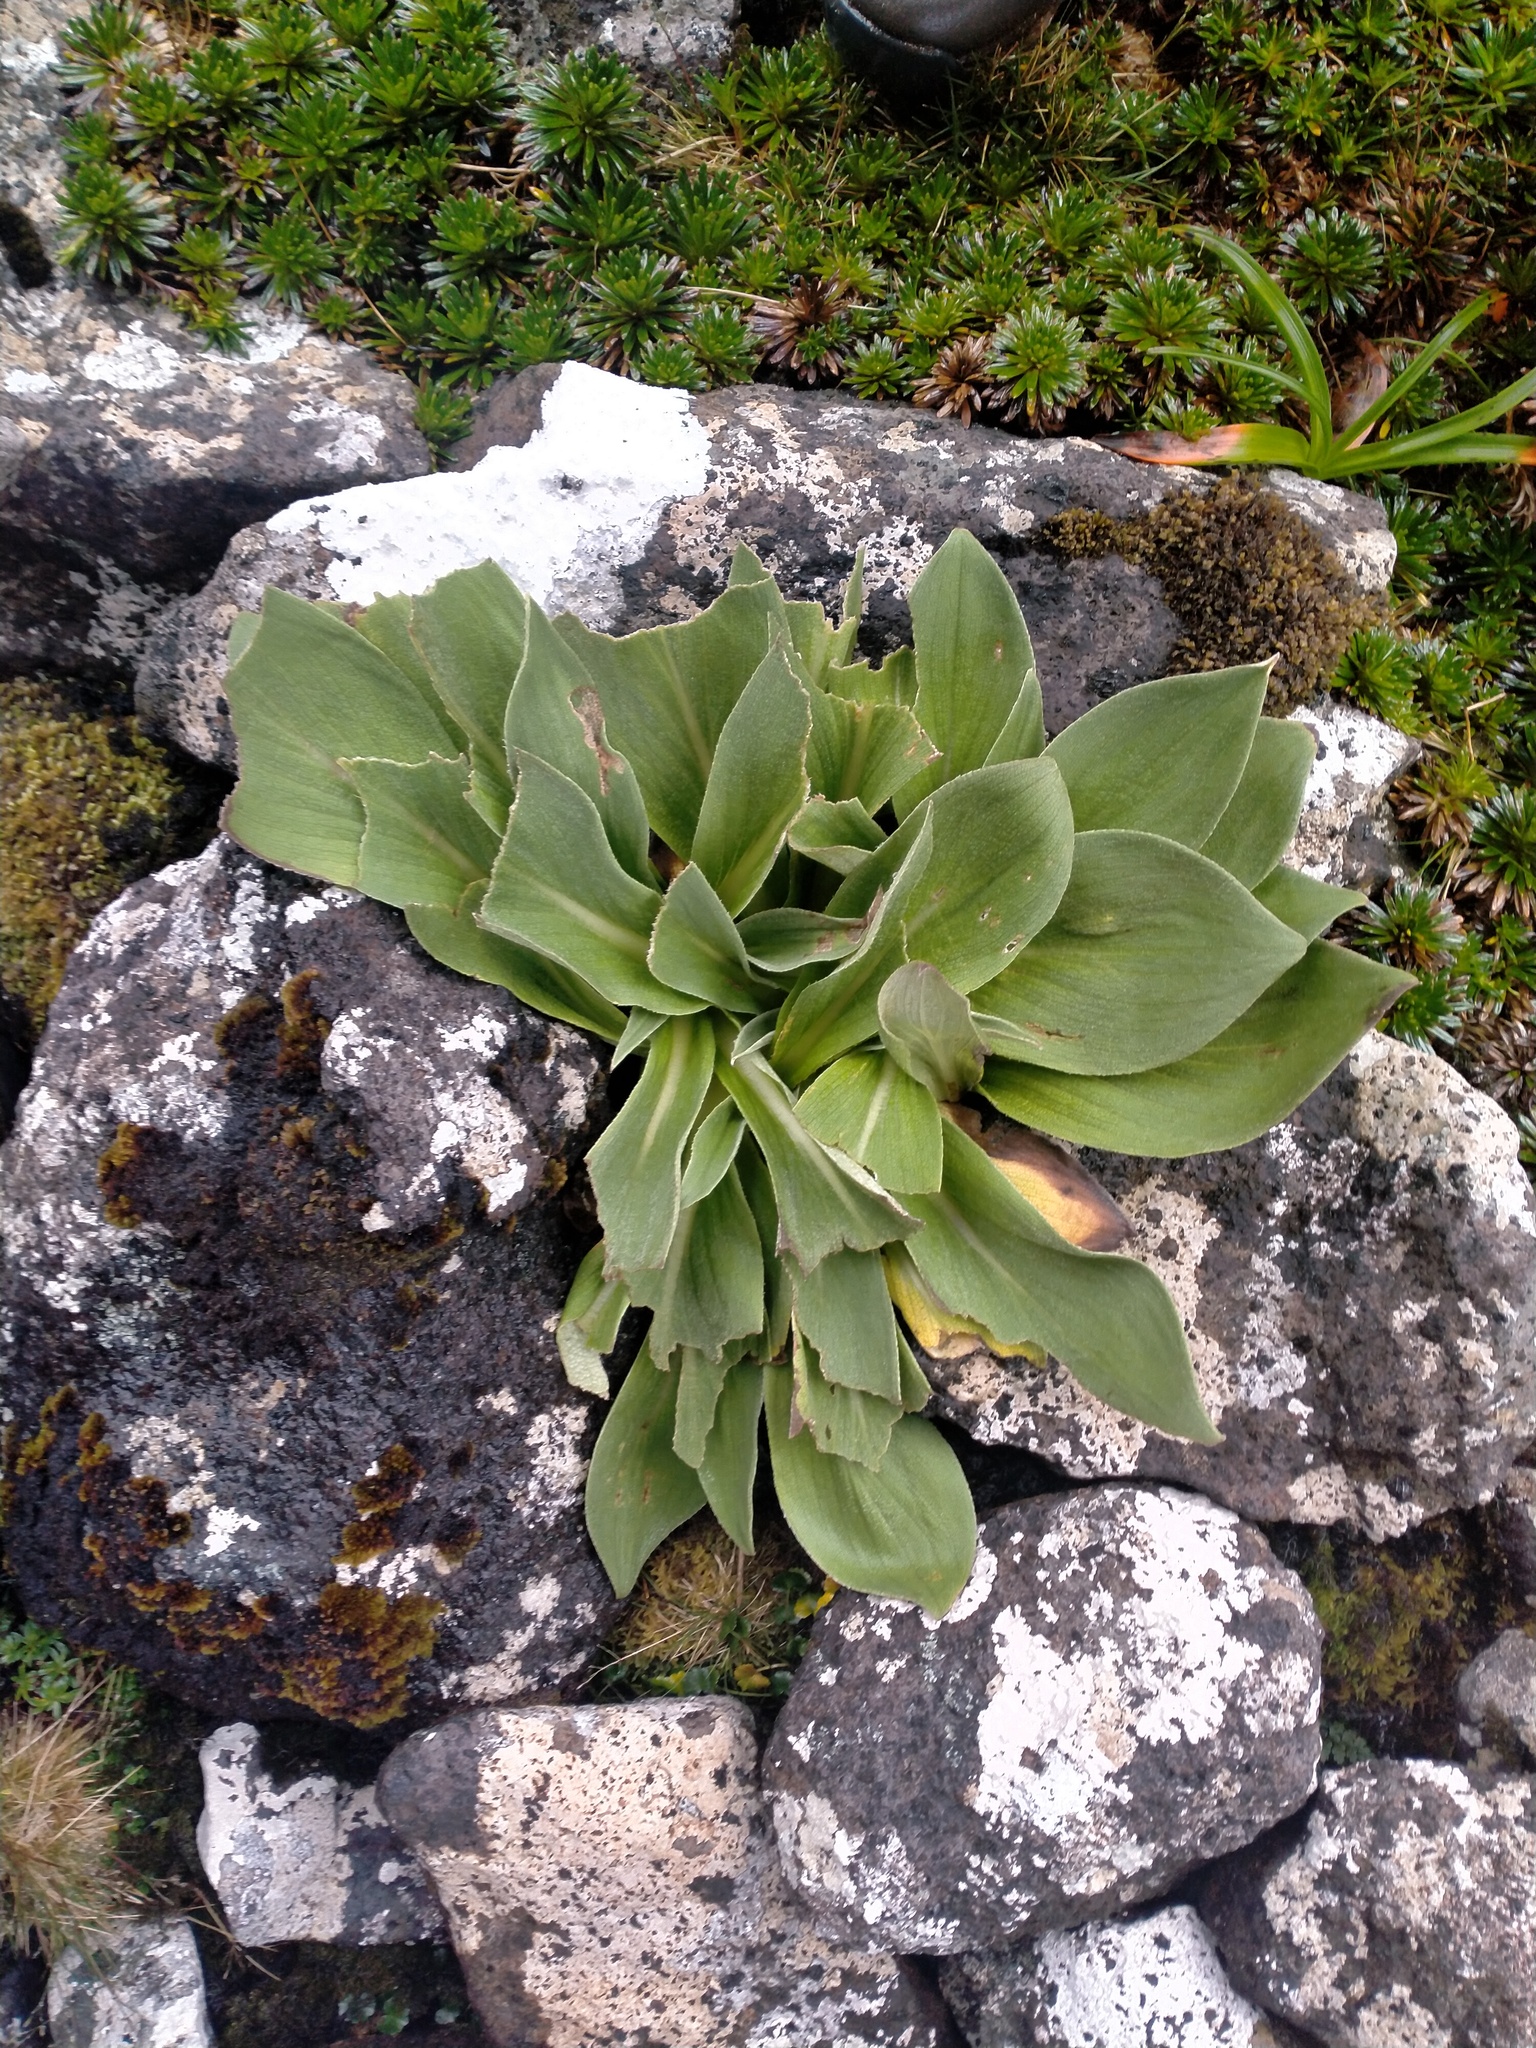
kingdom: Plantae
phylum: Tracheophyta
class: Magnoliopsida
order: Asterales
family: Asteraceae
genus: Pleurophyllum
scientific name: Pleurophyllum hookeri
